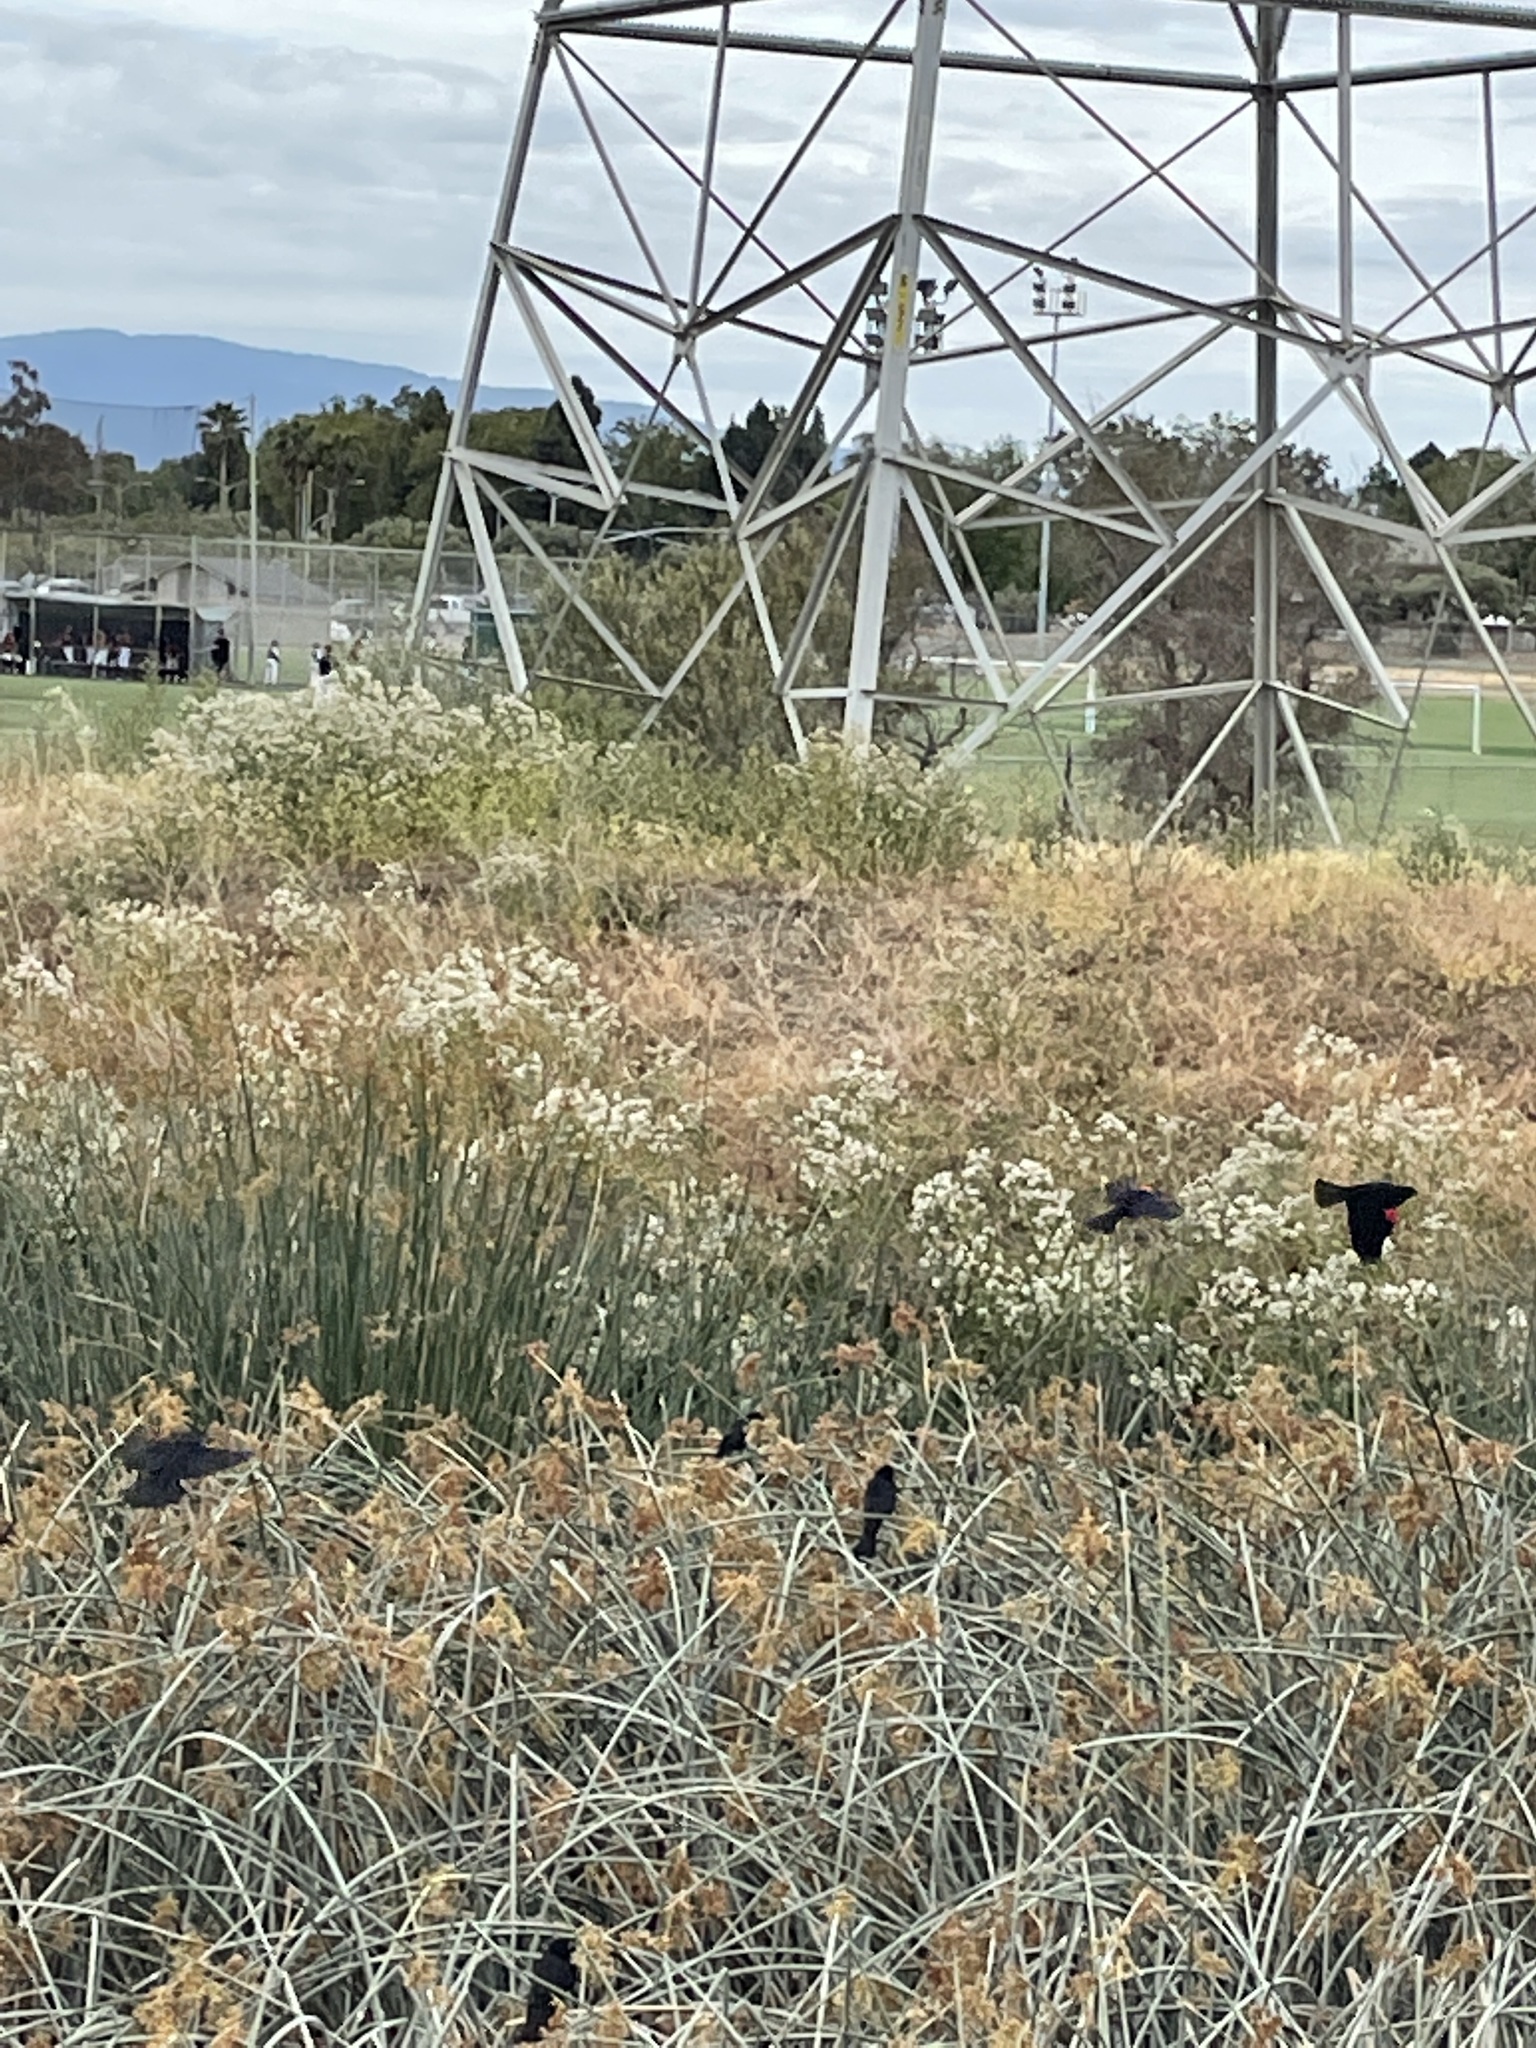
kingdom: Animalia
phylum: Chordata
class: Aves
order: Passeriformes
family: Icteridae
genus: Agelaius
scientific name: Agelaius phoeniceus
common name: Red-winged blackbird
